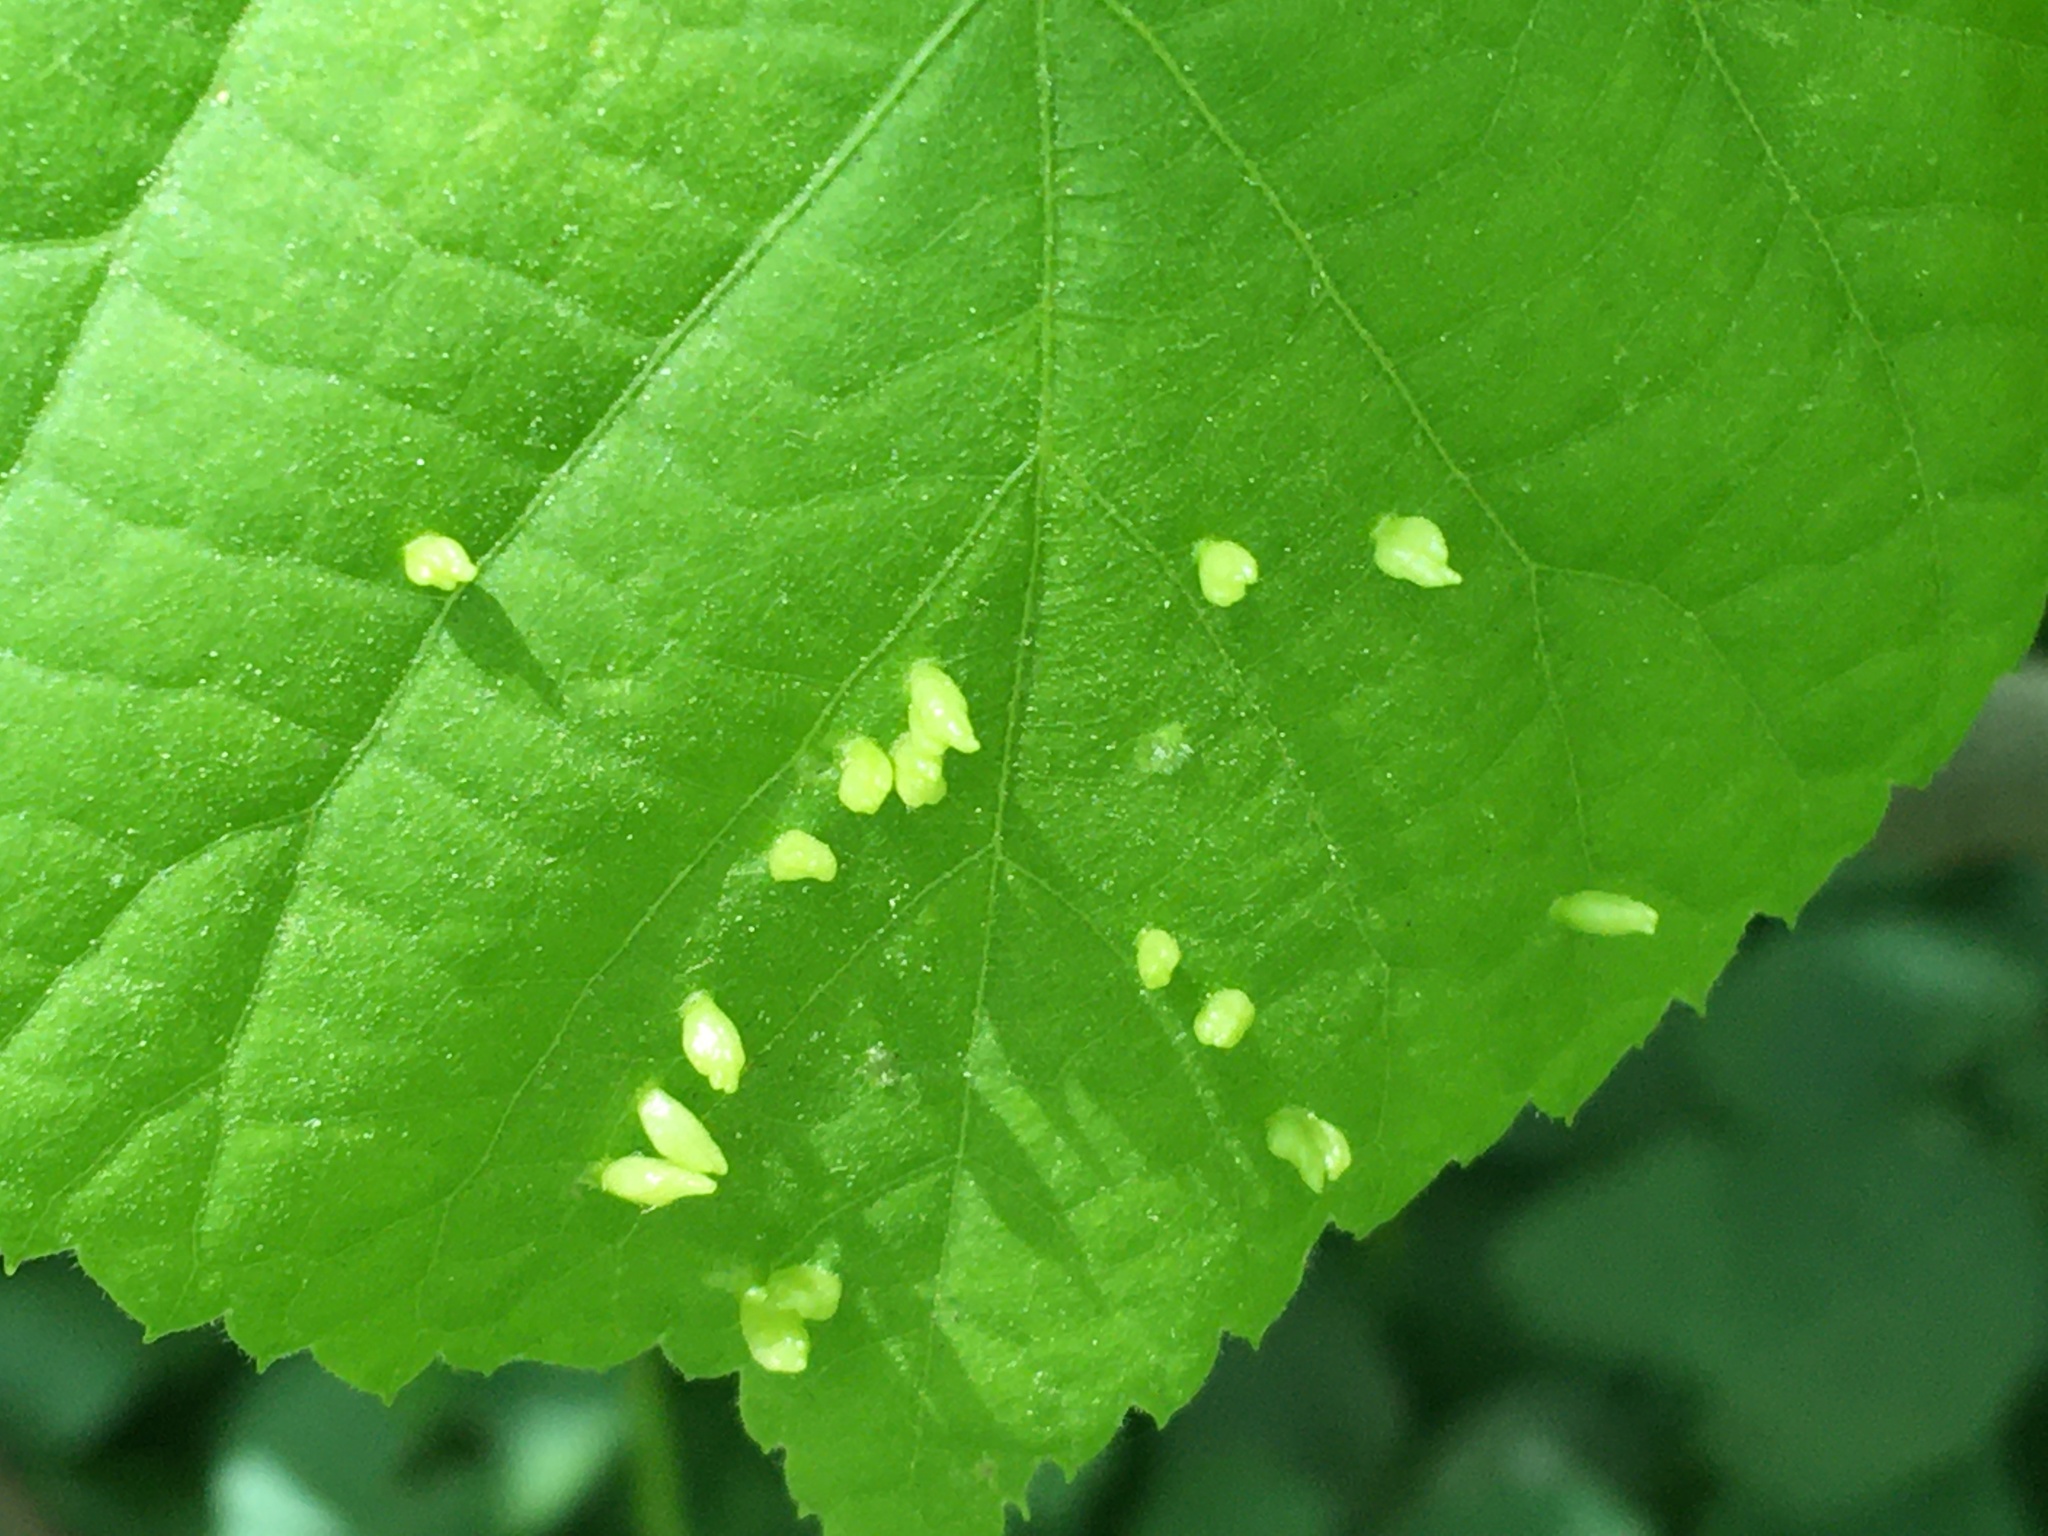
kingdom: Animalia
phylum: Arthropoda
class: Arachnida
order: Trombidiformes
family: Eriophyidae
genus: Eriophyes
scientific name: Eriophyes tiliae
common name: Red nail gall mite
